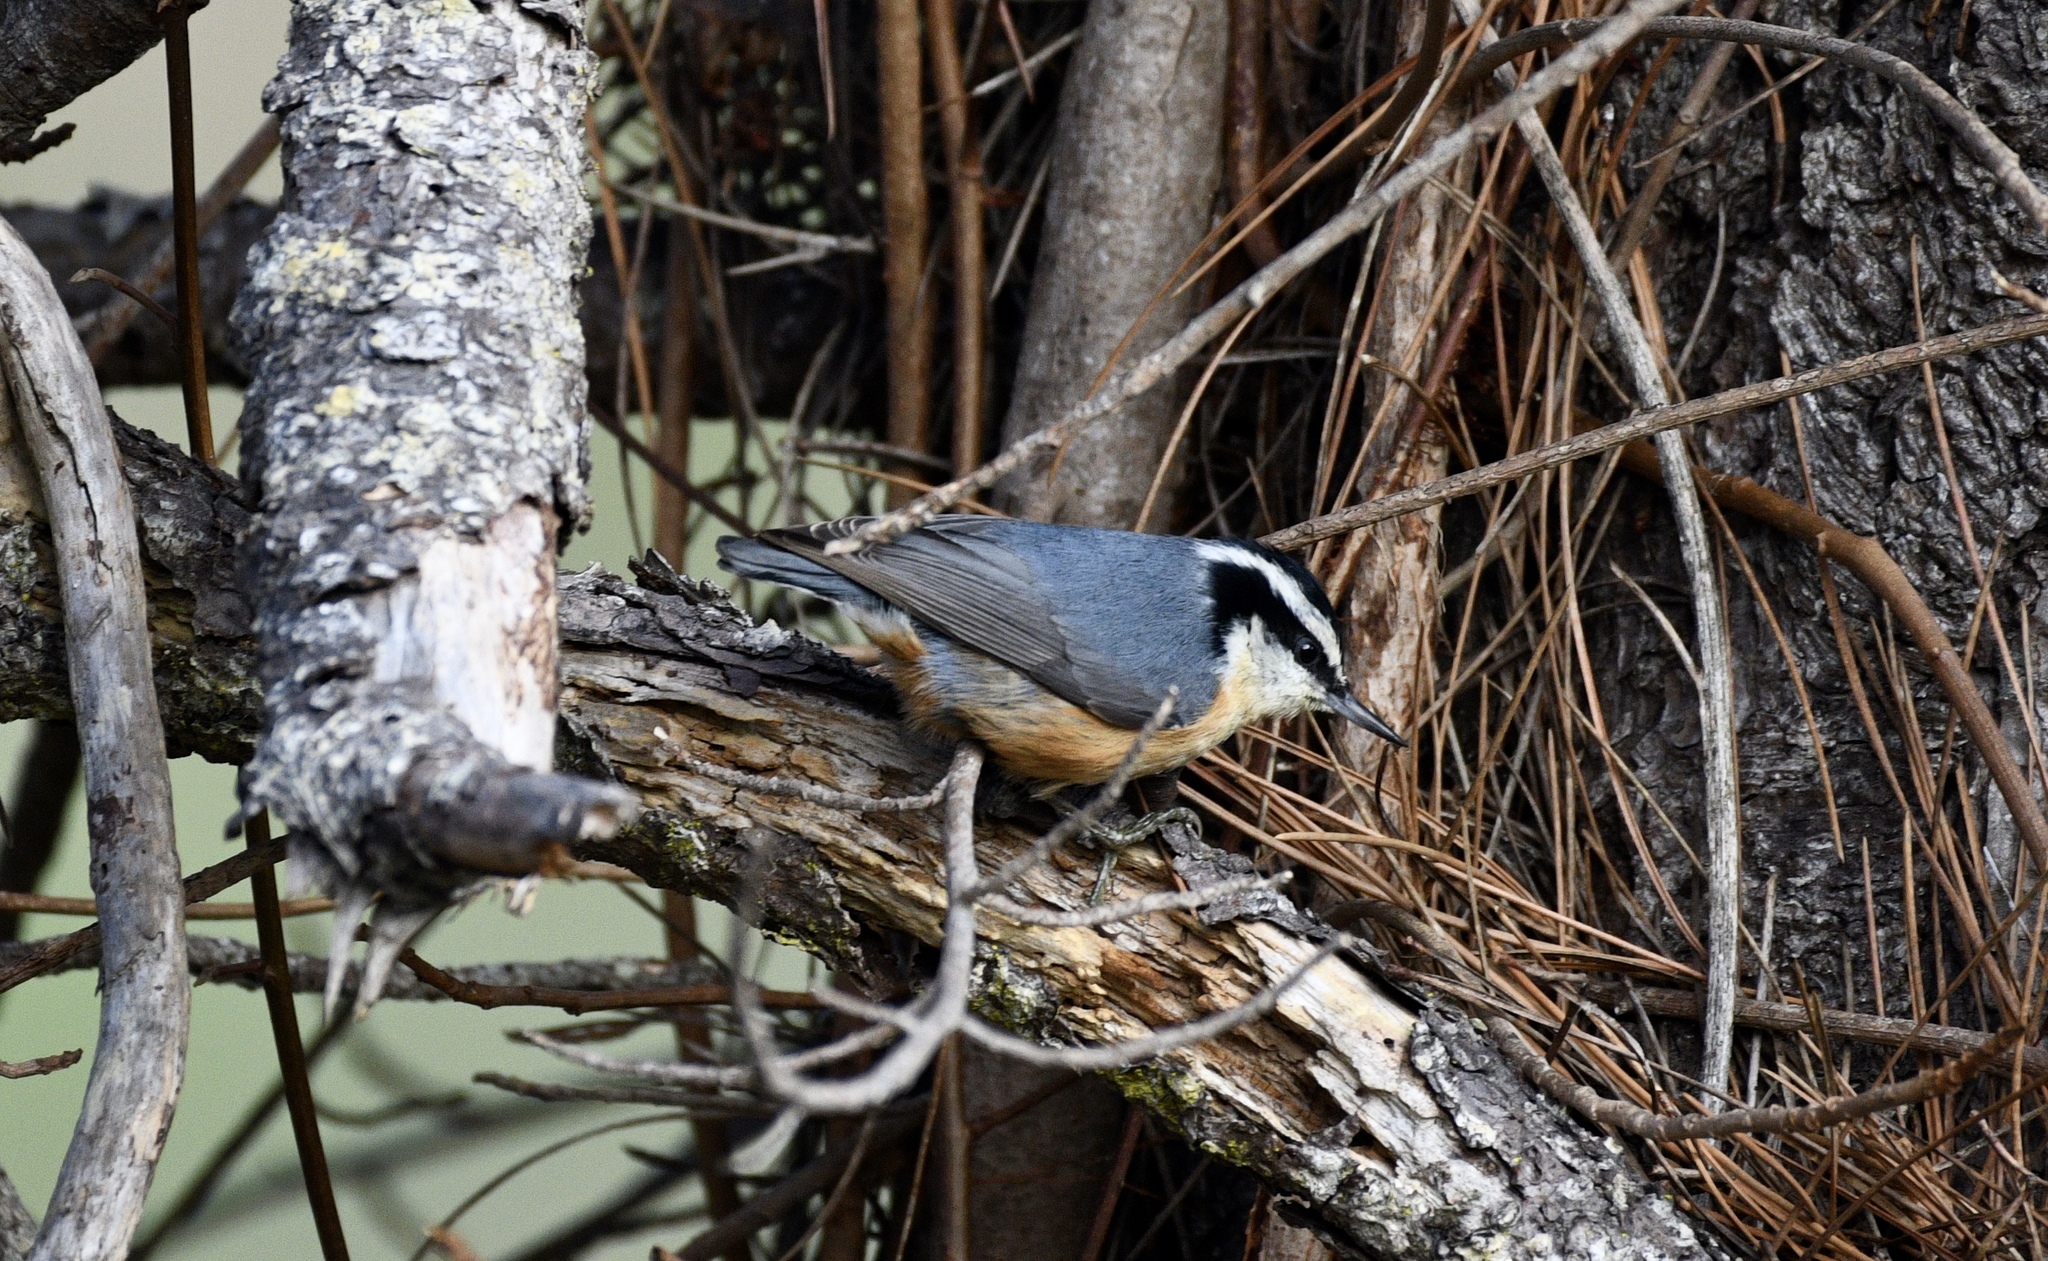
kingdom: Animalia
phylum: Chordata
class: Aves
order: Passeriformes
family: Sittidae
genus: Sitta
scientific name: Sitta canadensis
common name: Red-breasted nuthatch
